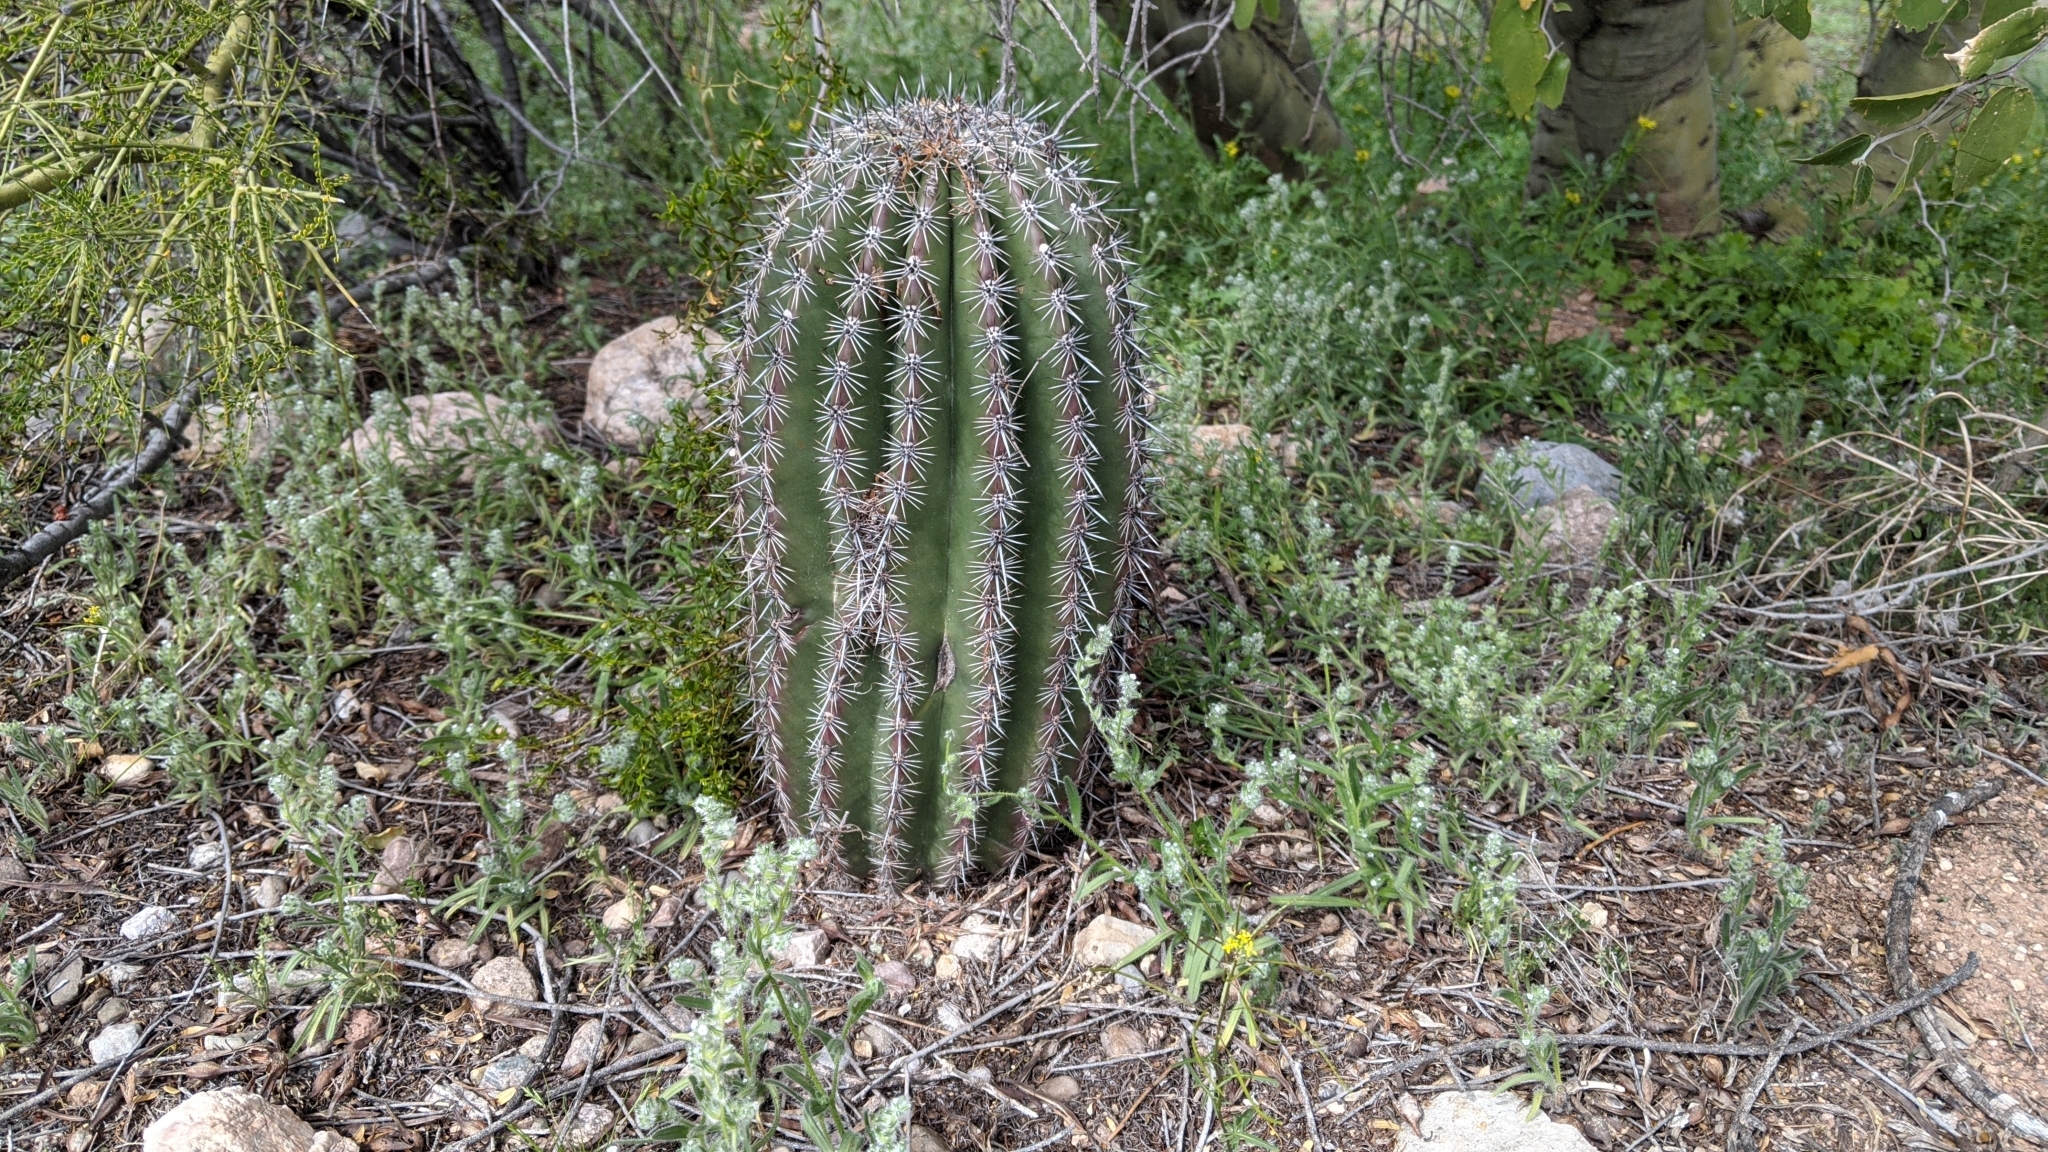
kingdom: Plantae
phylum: Tracheophyta
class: Magnoliopsida
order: Caryophyllales
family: Cactaceae
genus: Carnegiea
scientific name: Carnegiea gigantea
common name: Saguaro
